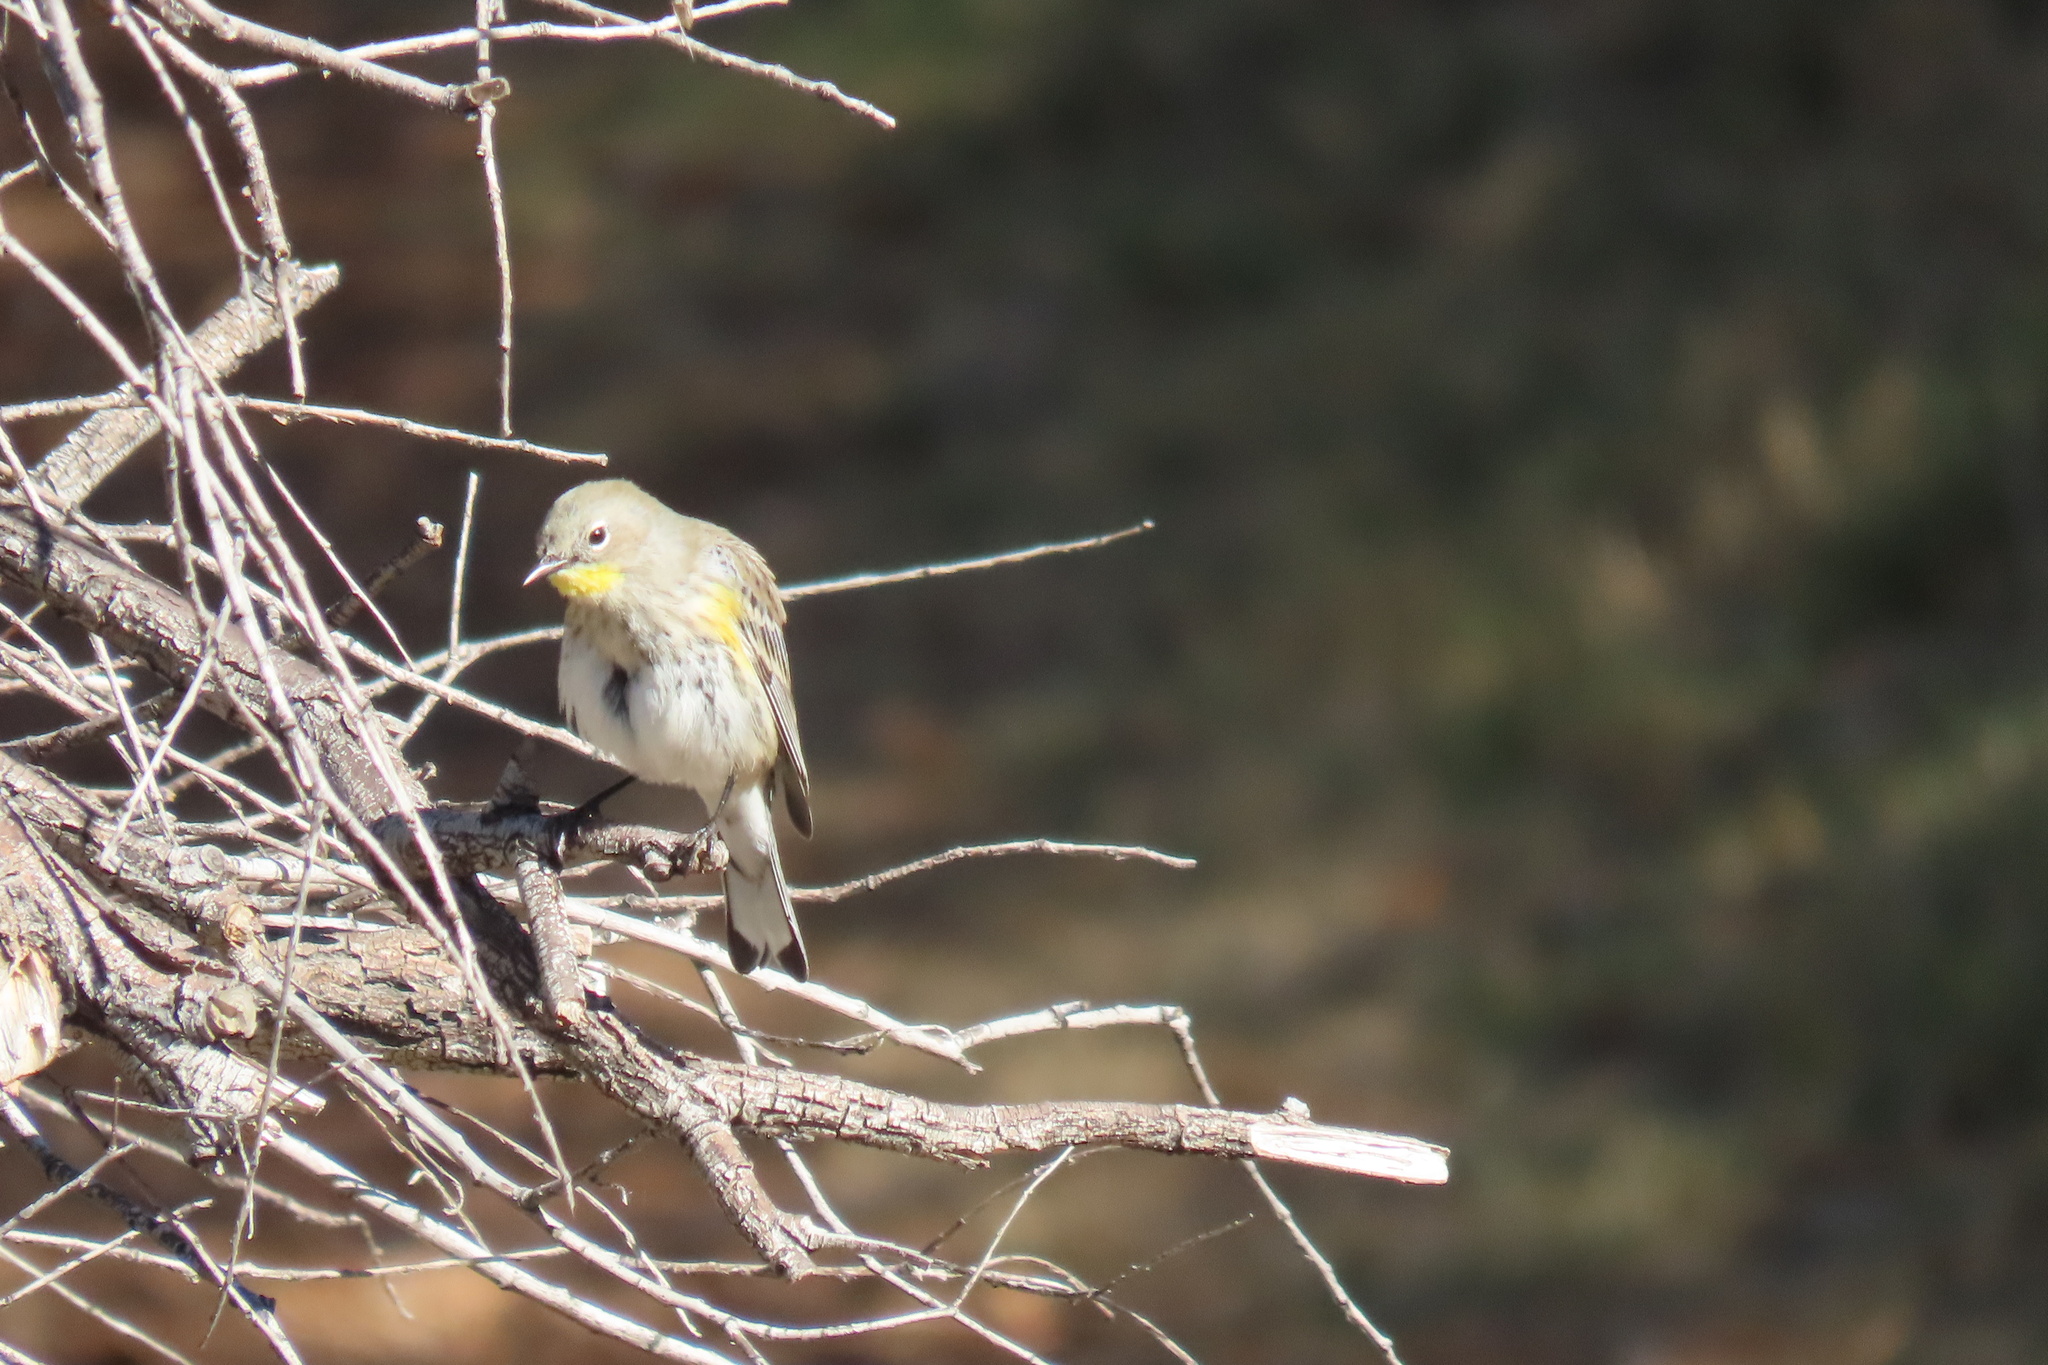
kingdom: Animalia
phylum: Chordata
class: Aves
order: Passeriformes
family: Parulidae
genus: Setophaga
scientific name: Setophaga coronata
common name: Myrtle warbler
